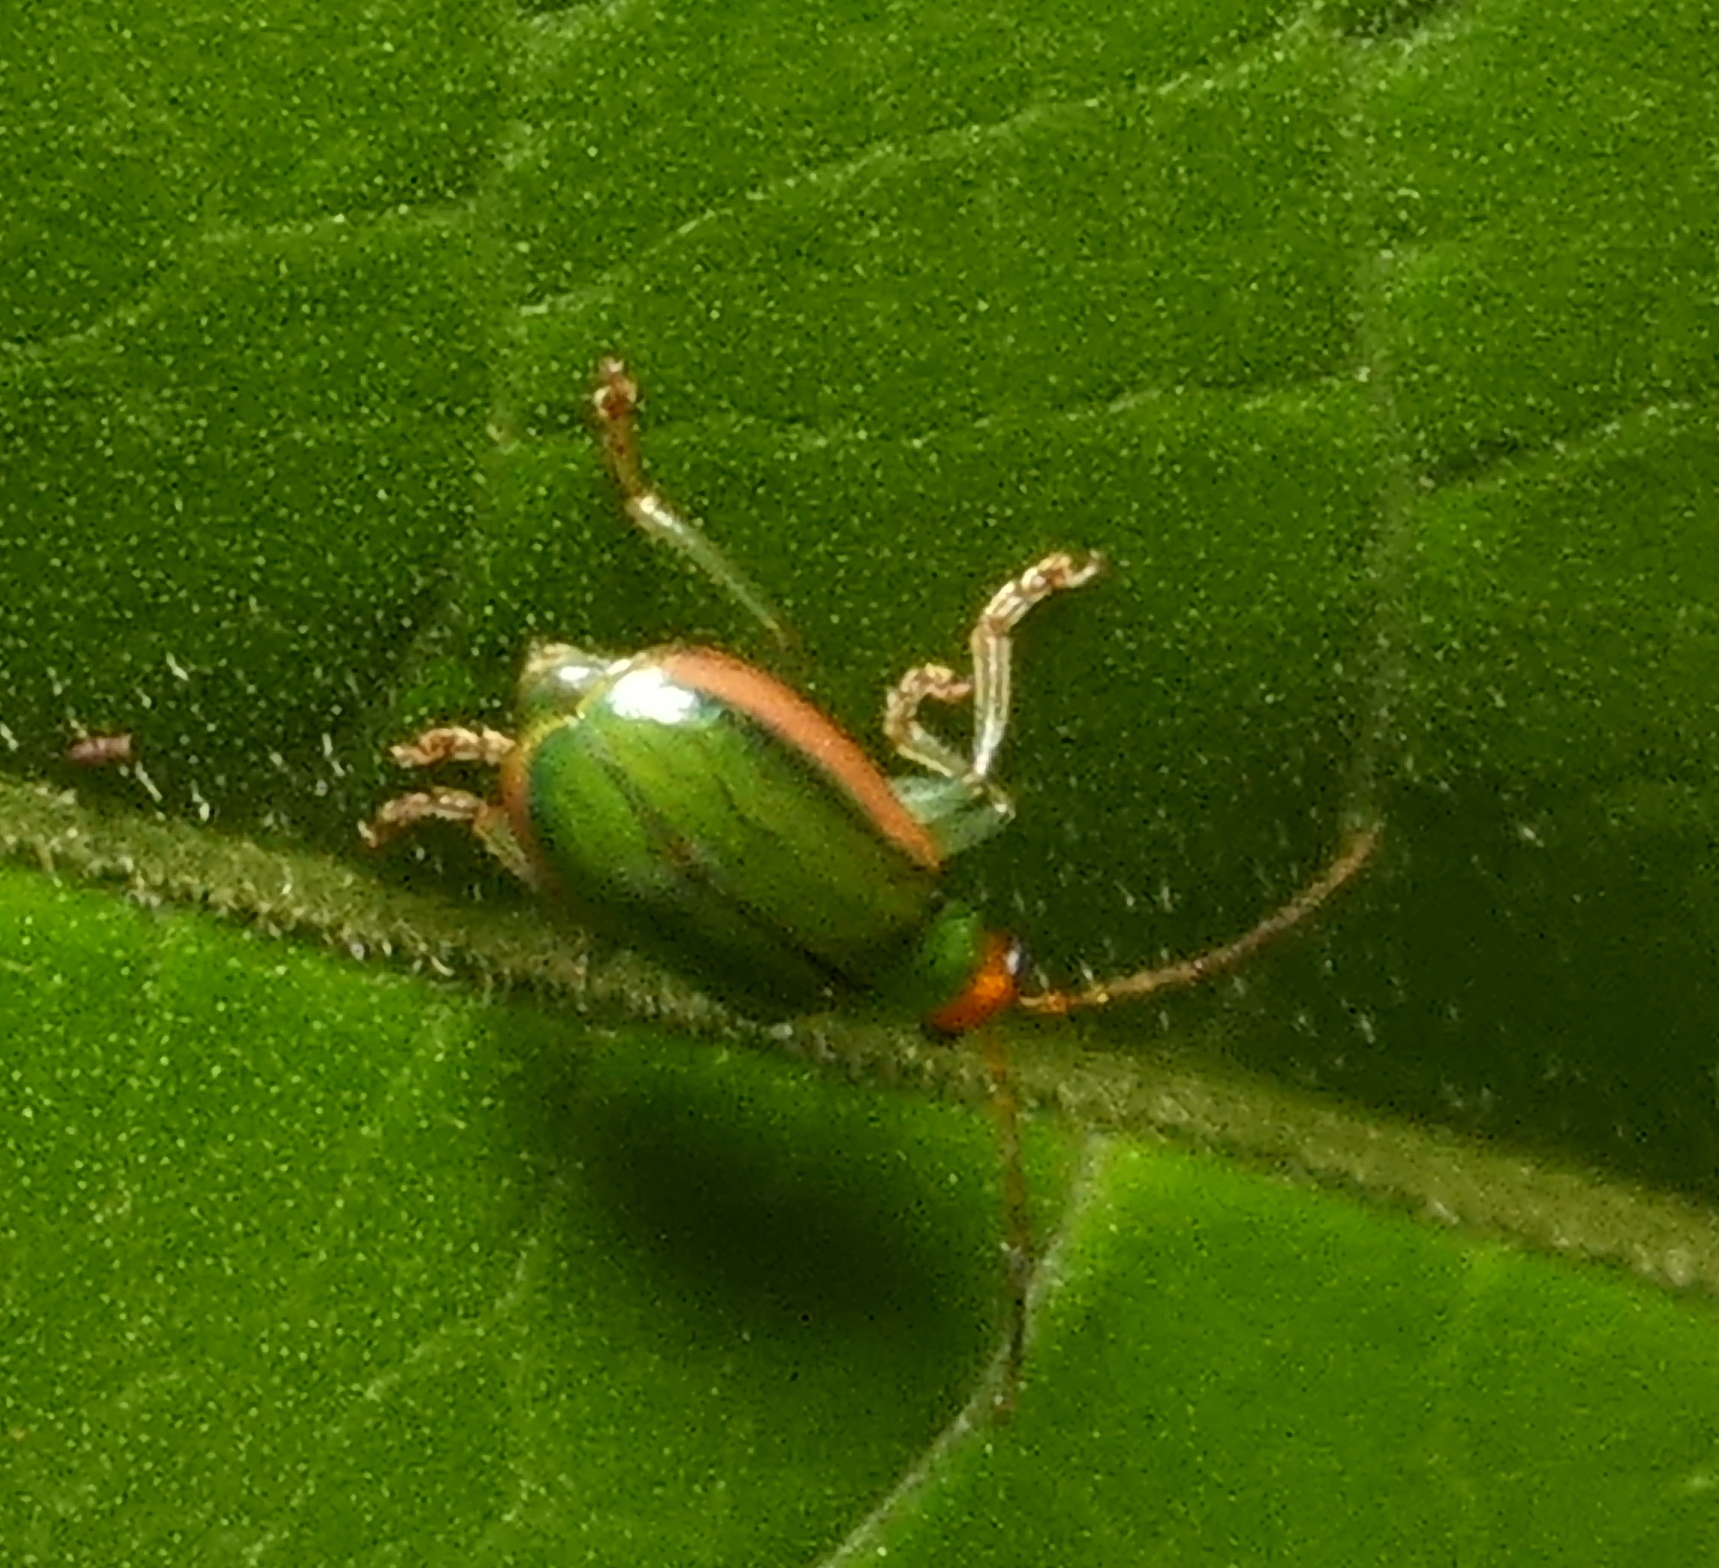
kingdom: Animalia
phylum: Arthropoda
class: Insecta
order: Coleoptera
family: Chrysomelidae
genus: Diabrotica
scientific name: Diabrotica
